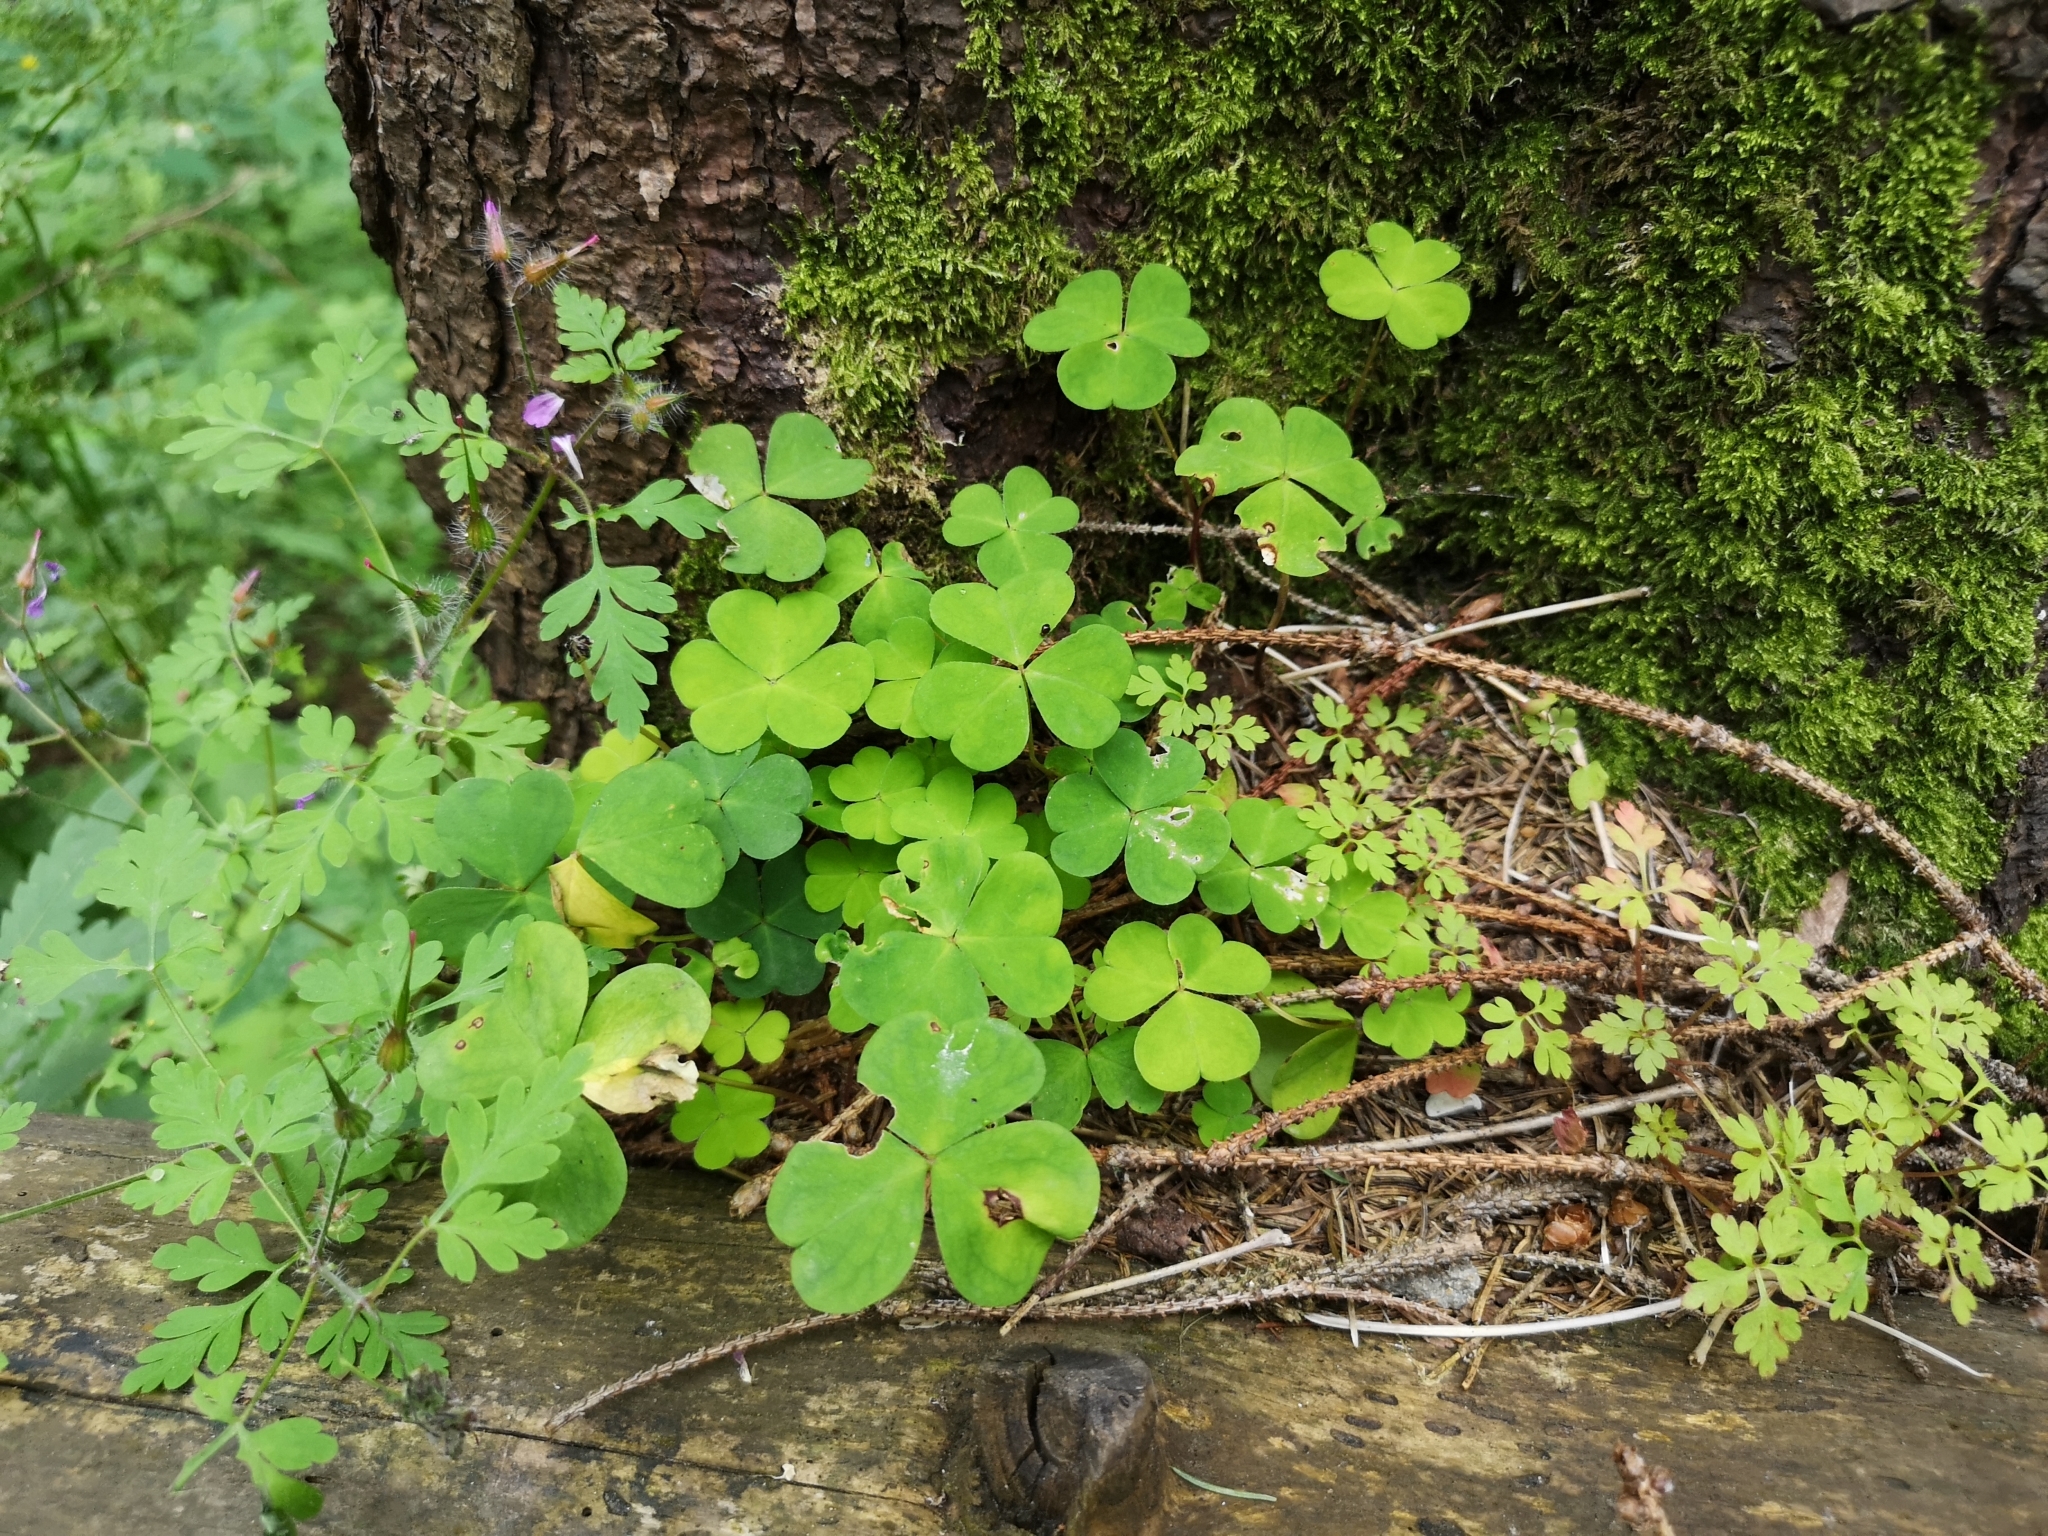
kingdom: Plantae
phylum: Tracheophyta
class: Magnoliopsida
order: Oxalidales
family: Oxalidaceae
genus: Oxalis
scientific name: Oxalis acetosella
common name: Wood-sorrel
